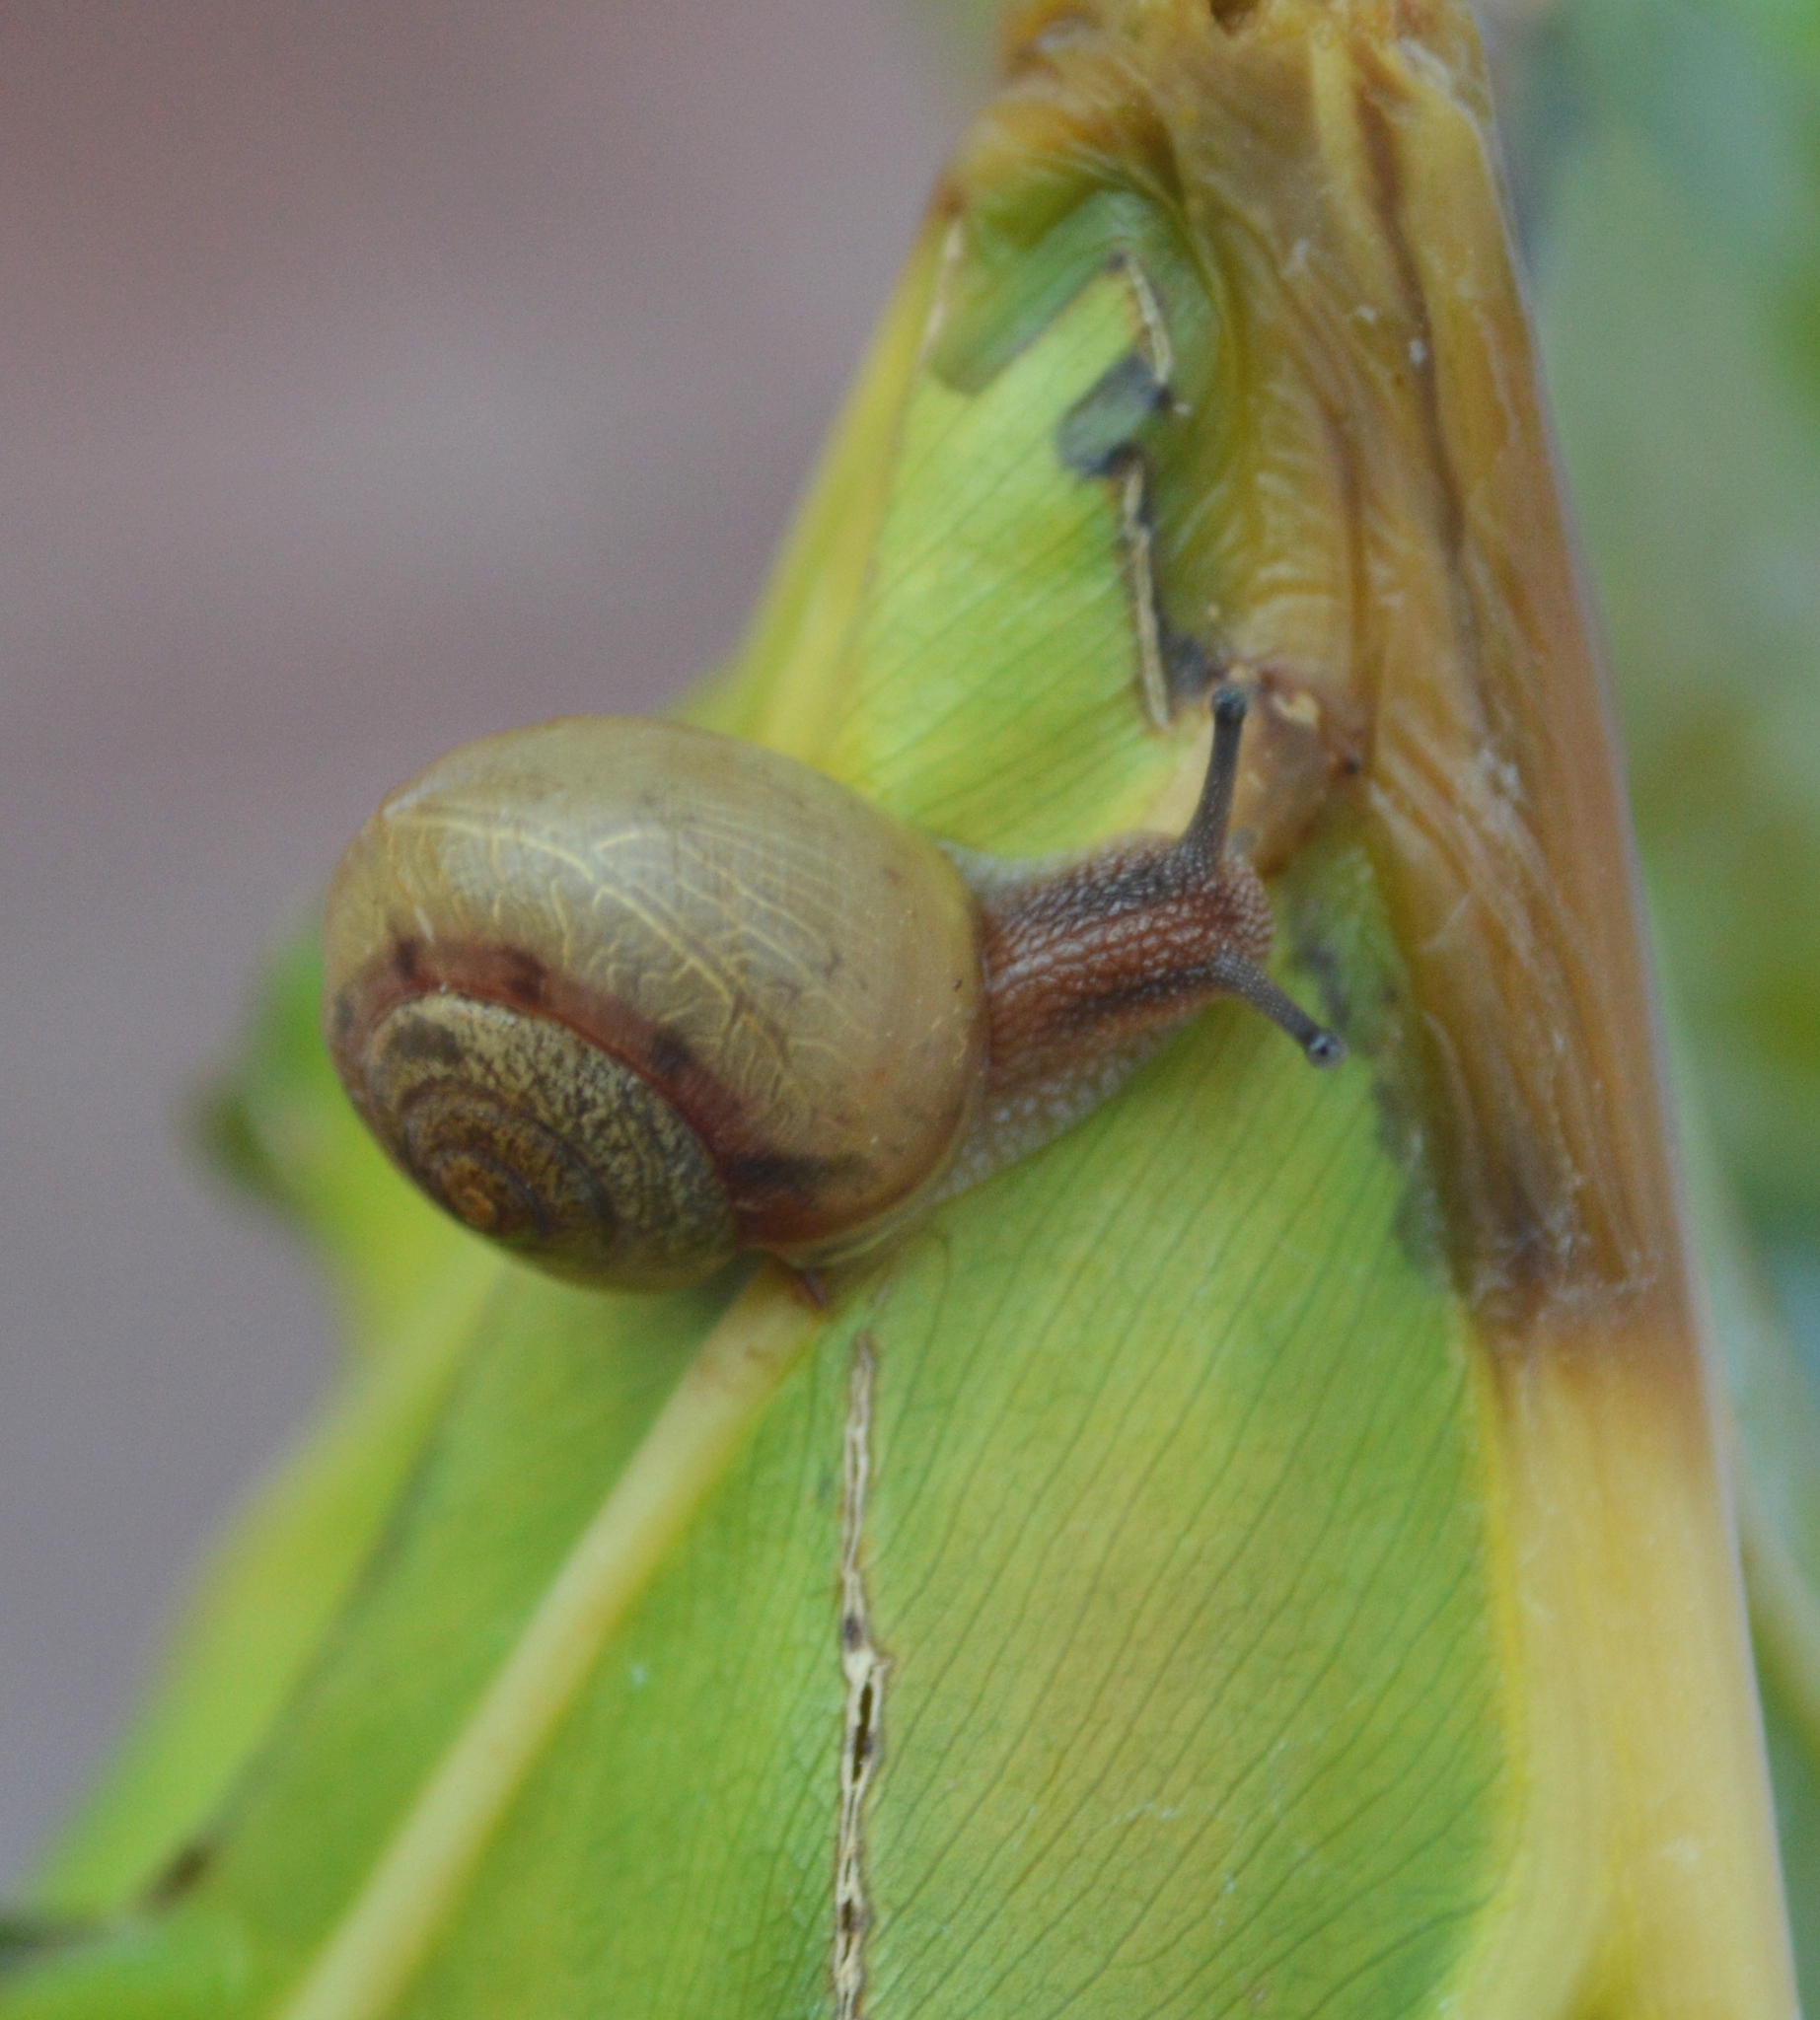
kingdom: Animalia
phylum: Mollusca
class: Gastropoda
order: Stylommatophora
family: Camaenidae
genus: Acusta
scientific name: Acusta rhodostoma
